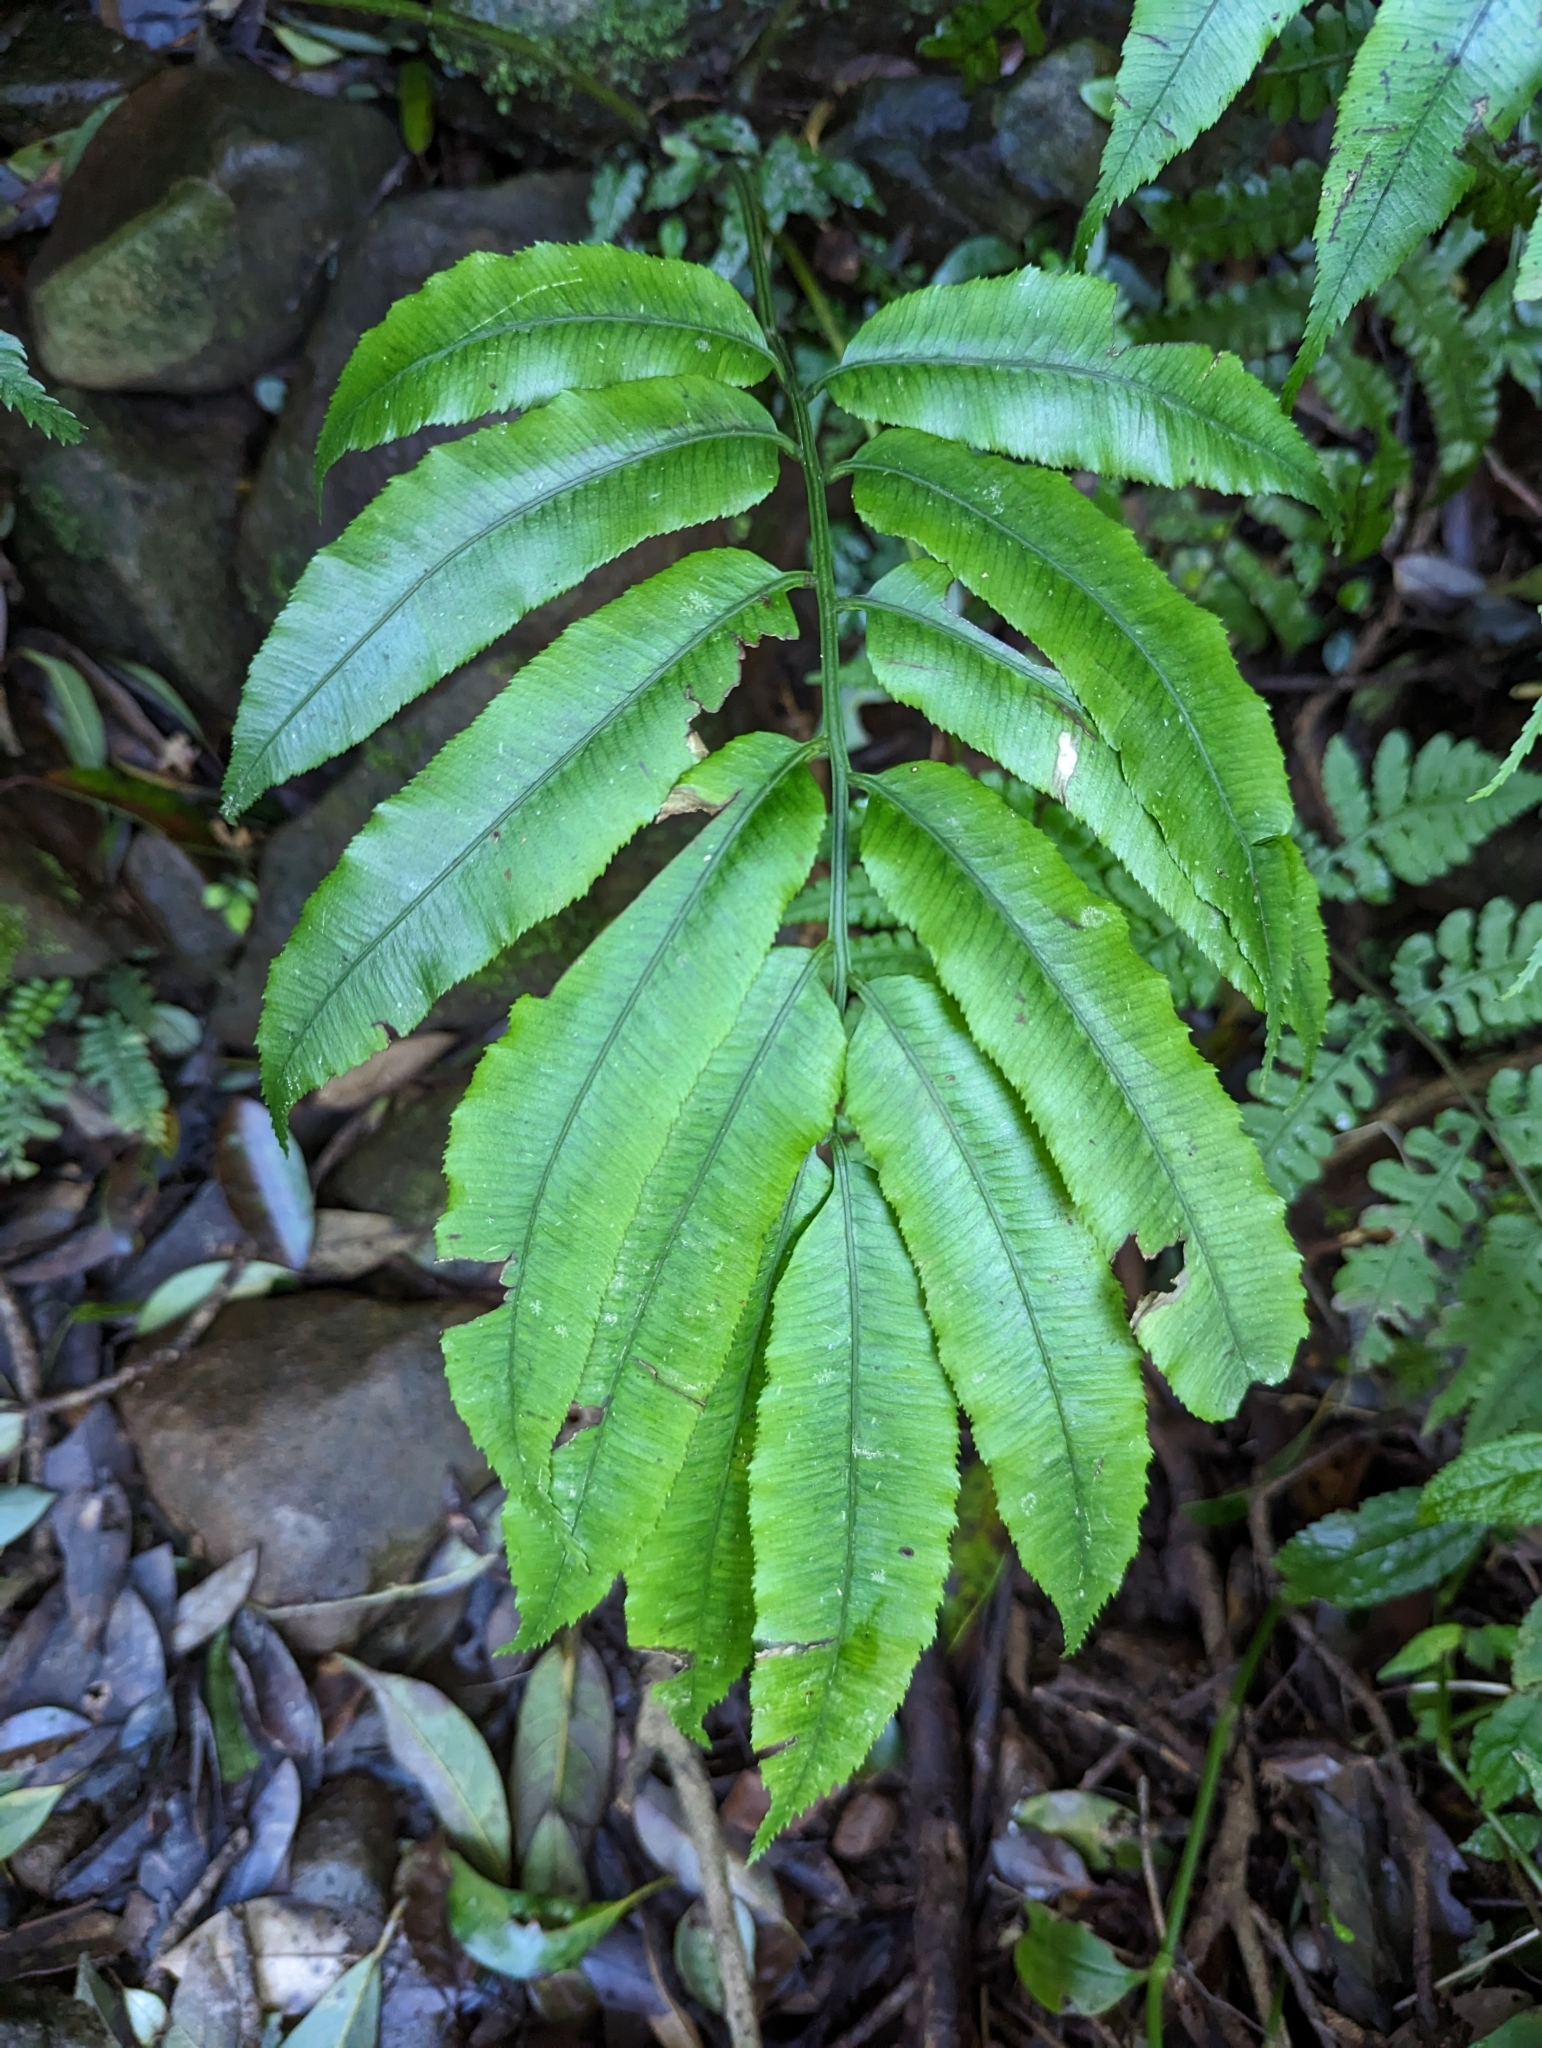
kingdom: Plantae
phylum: Tracheophyta
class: Polypodiopsida
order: Marattiales
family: Marattiaceae
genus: Angiopteris
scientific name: Angiopteris lygodiifolia
